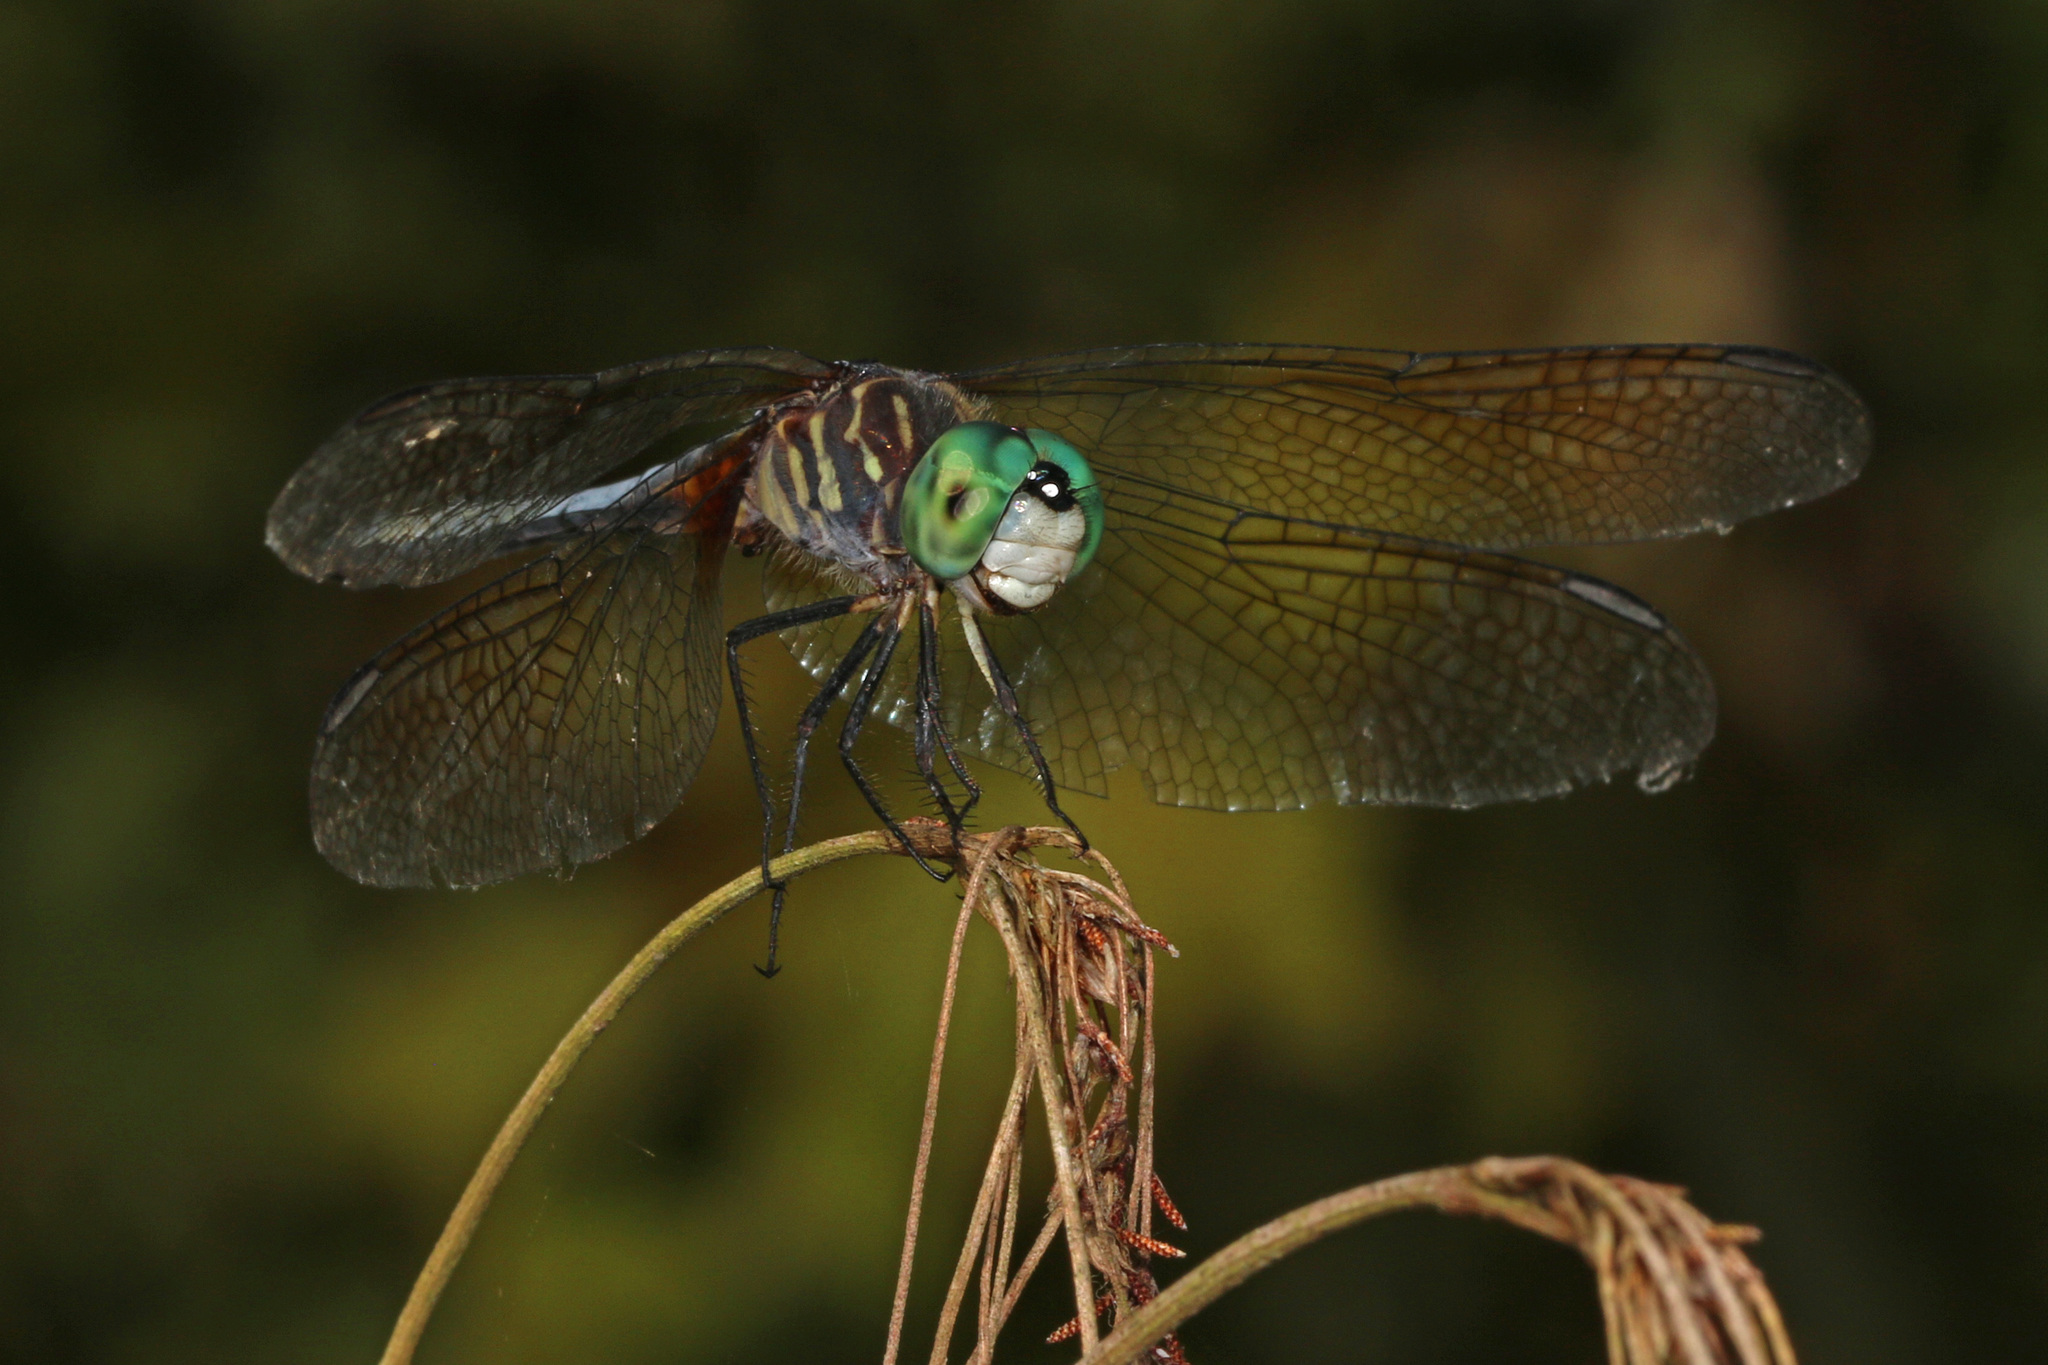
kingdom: Animalia
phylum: Arthropoda
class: Insecta
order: Odonata
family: Libellulidae
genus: Pachydiplax
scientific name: Pachydiplax longipennis
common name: Blue dasher
